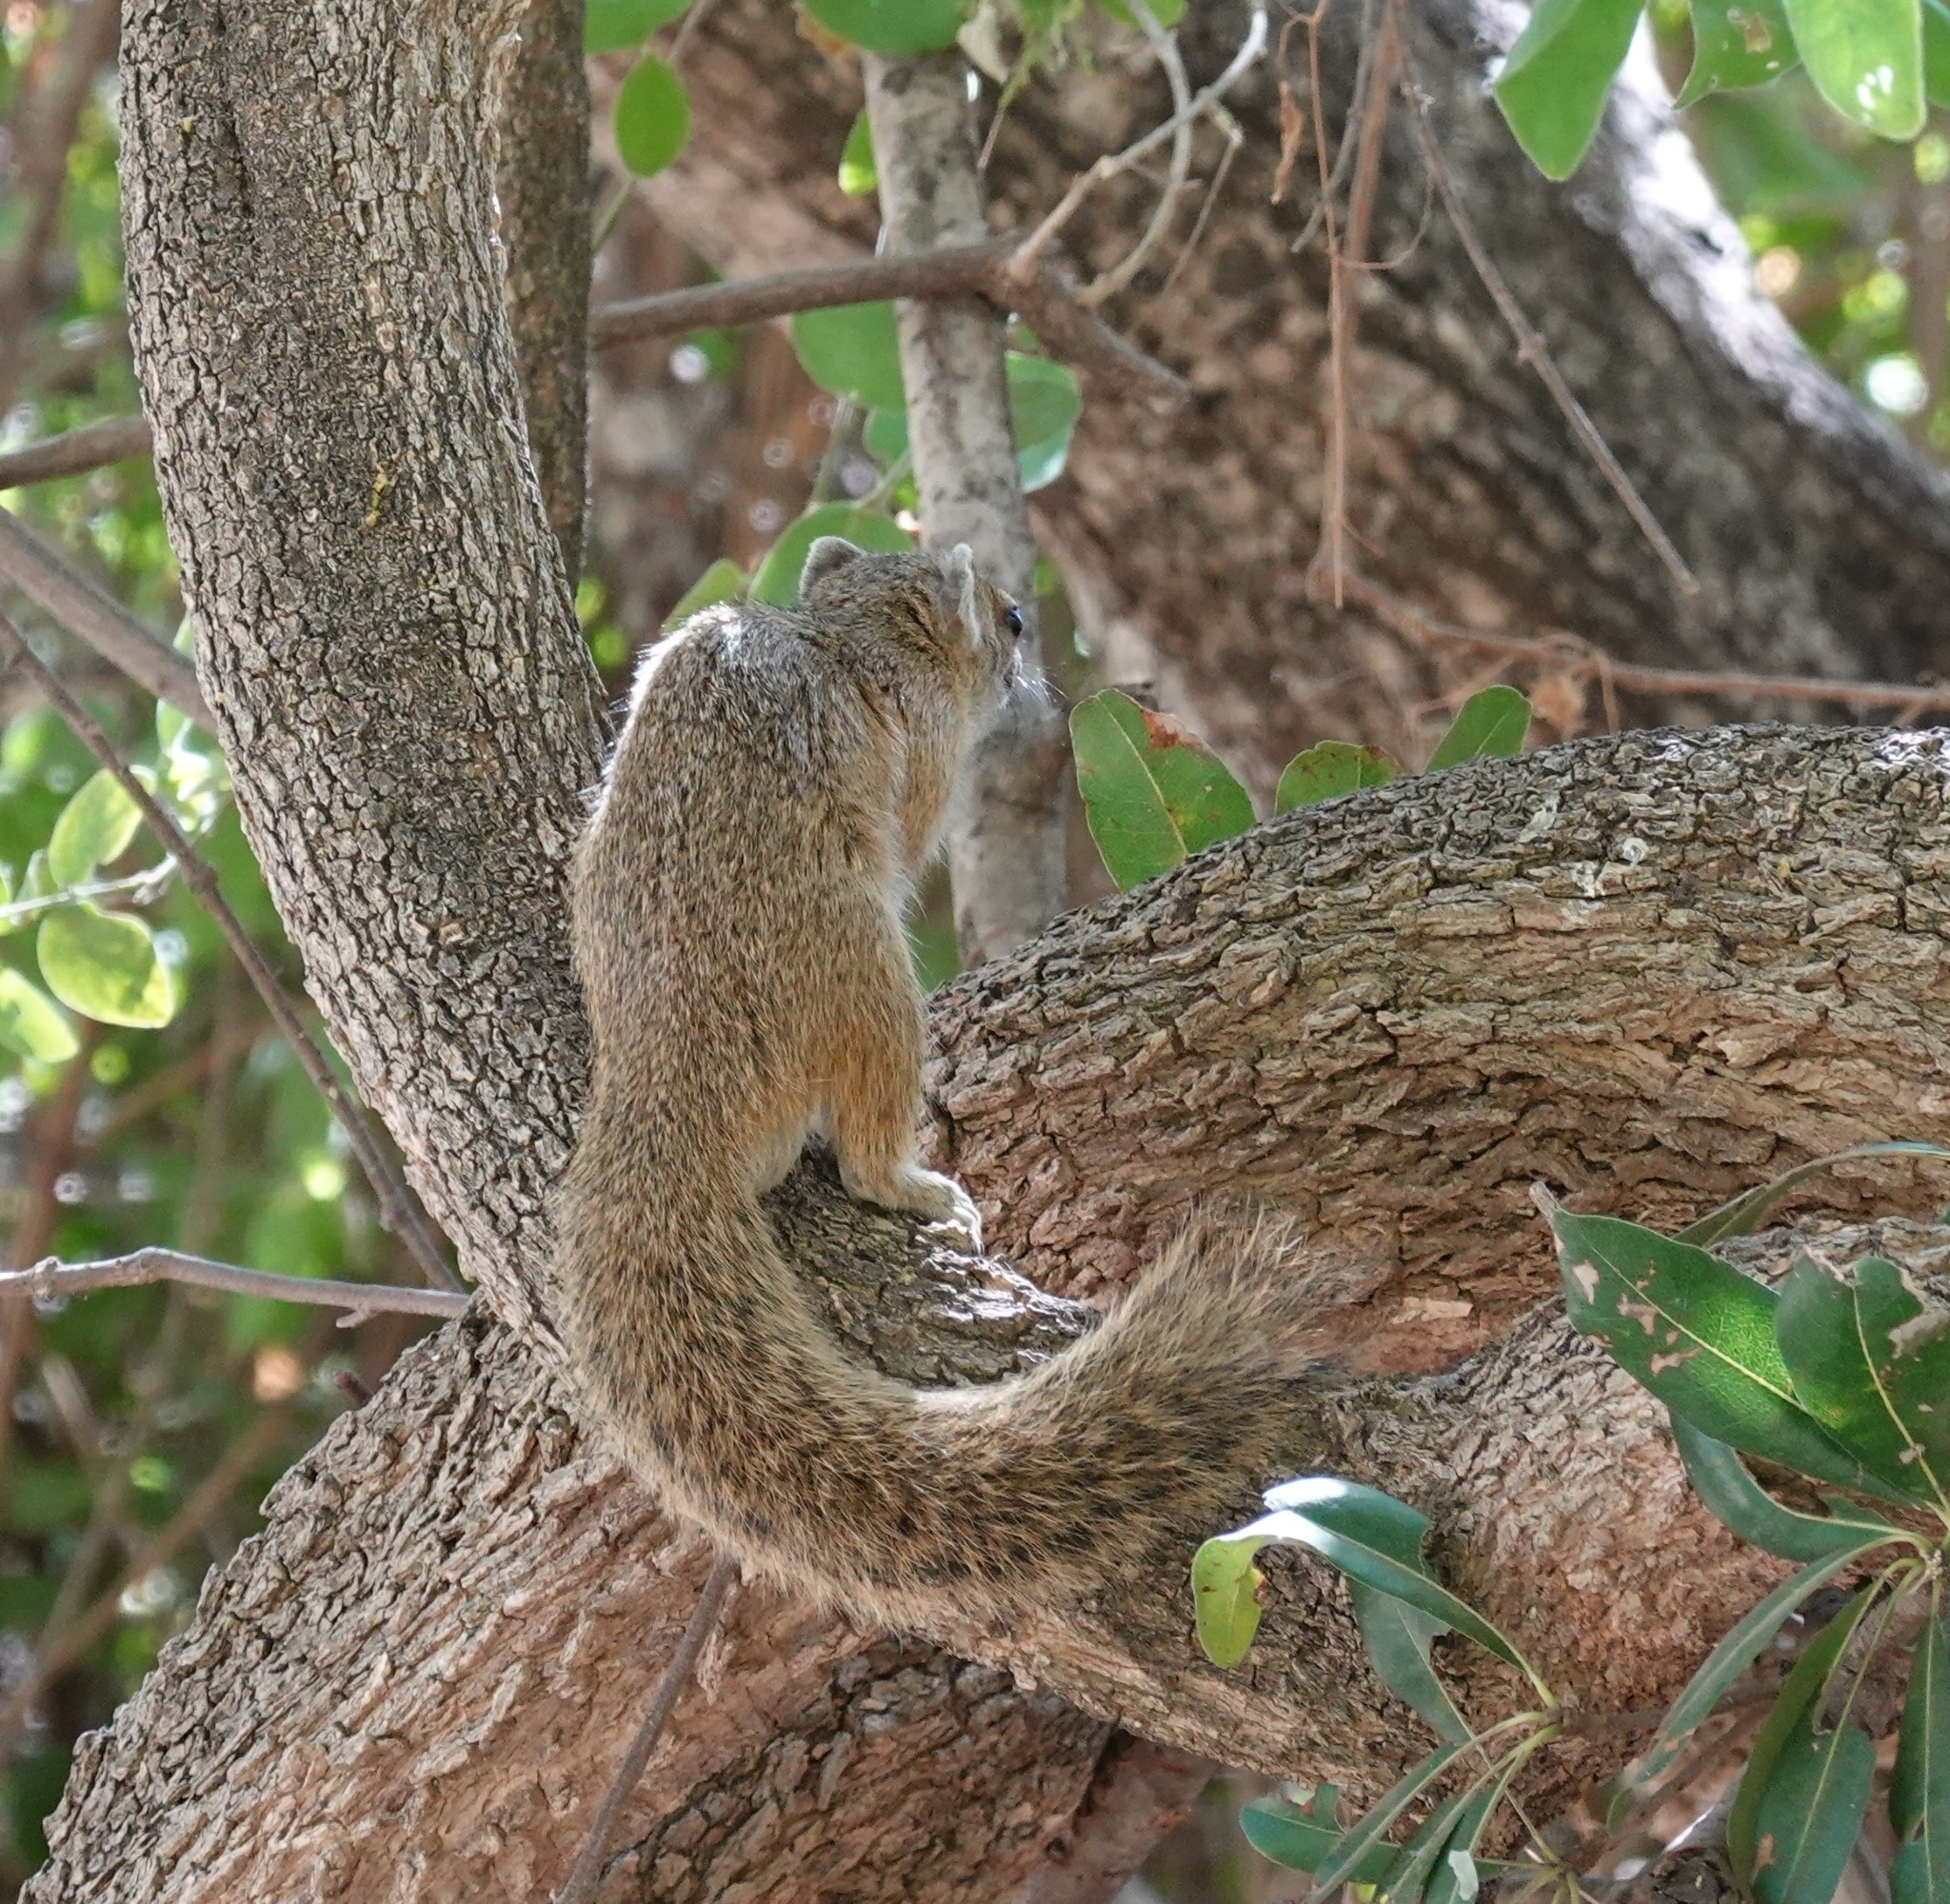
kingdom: Animalia
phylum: Chordata
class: Mammalia
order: Rodentia
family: Sciuridae
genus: Paraxerus
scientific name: Paraxerus cepapi
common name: Smith's bush squirrel
